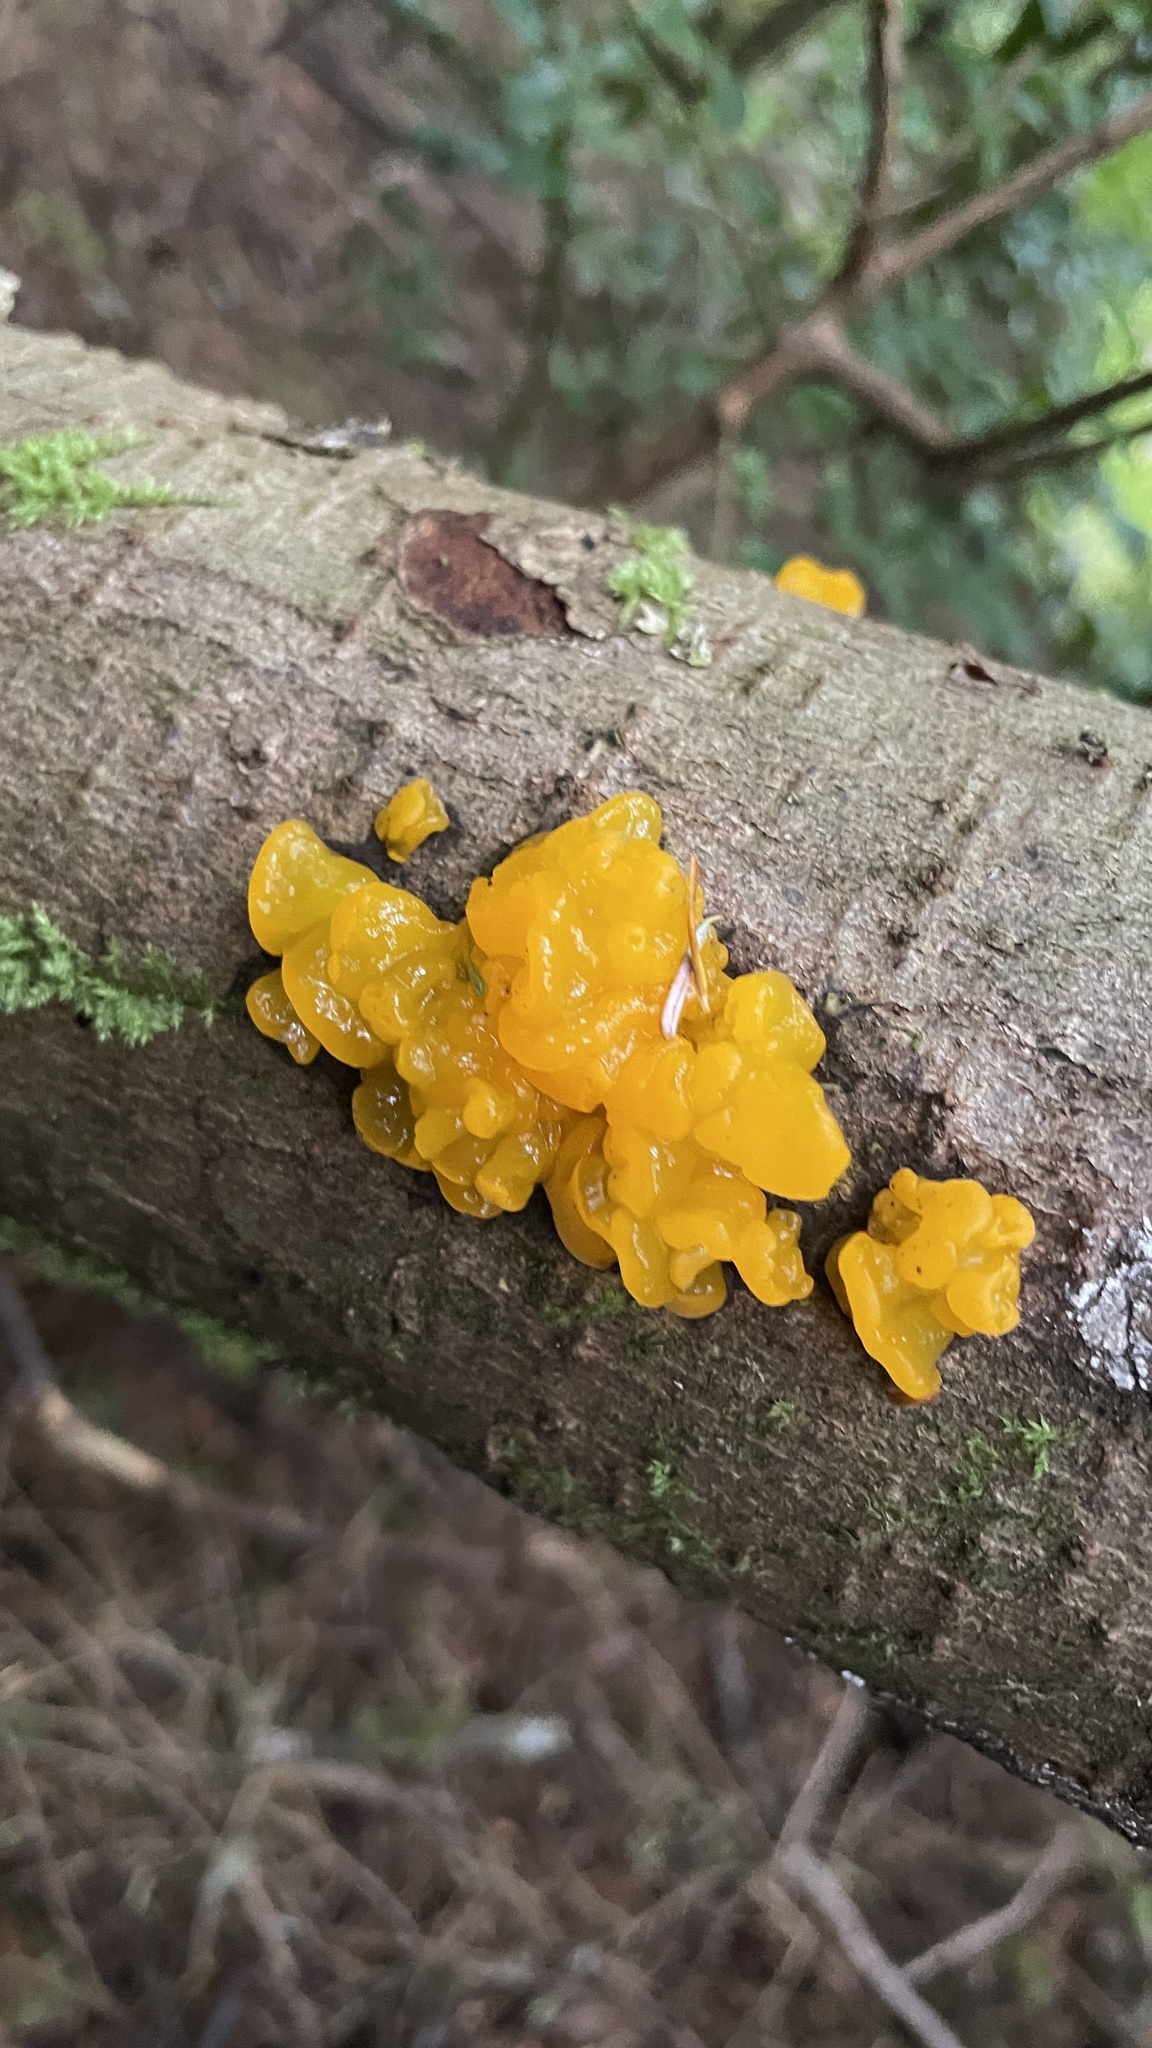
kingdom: Fungi
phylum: Basidiomycota
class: Dacrymycetes
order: Dacrymycetales
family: Dacrymycetaceae
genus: Dacrymyces
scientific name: Dacrymyces chrysospermus
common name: Orange jelly spot
